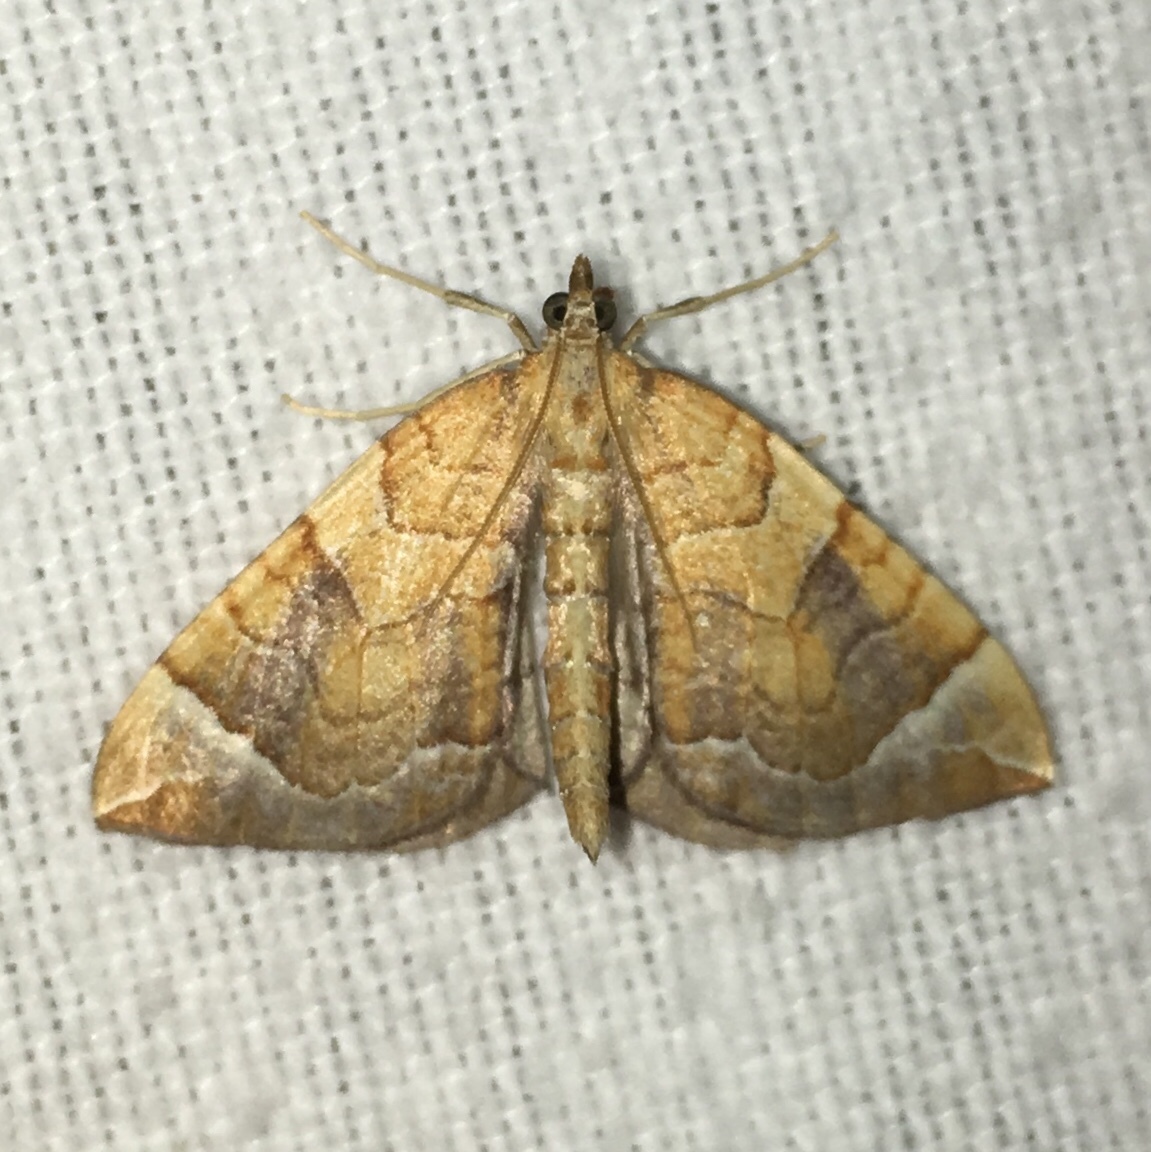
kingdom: Animalia
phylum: Arthropoda
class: Insecta
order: Lepidoptera
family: Geometridae
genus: Eulithis
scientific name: Eulithis testata
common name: Chevron
